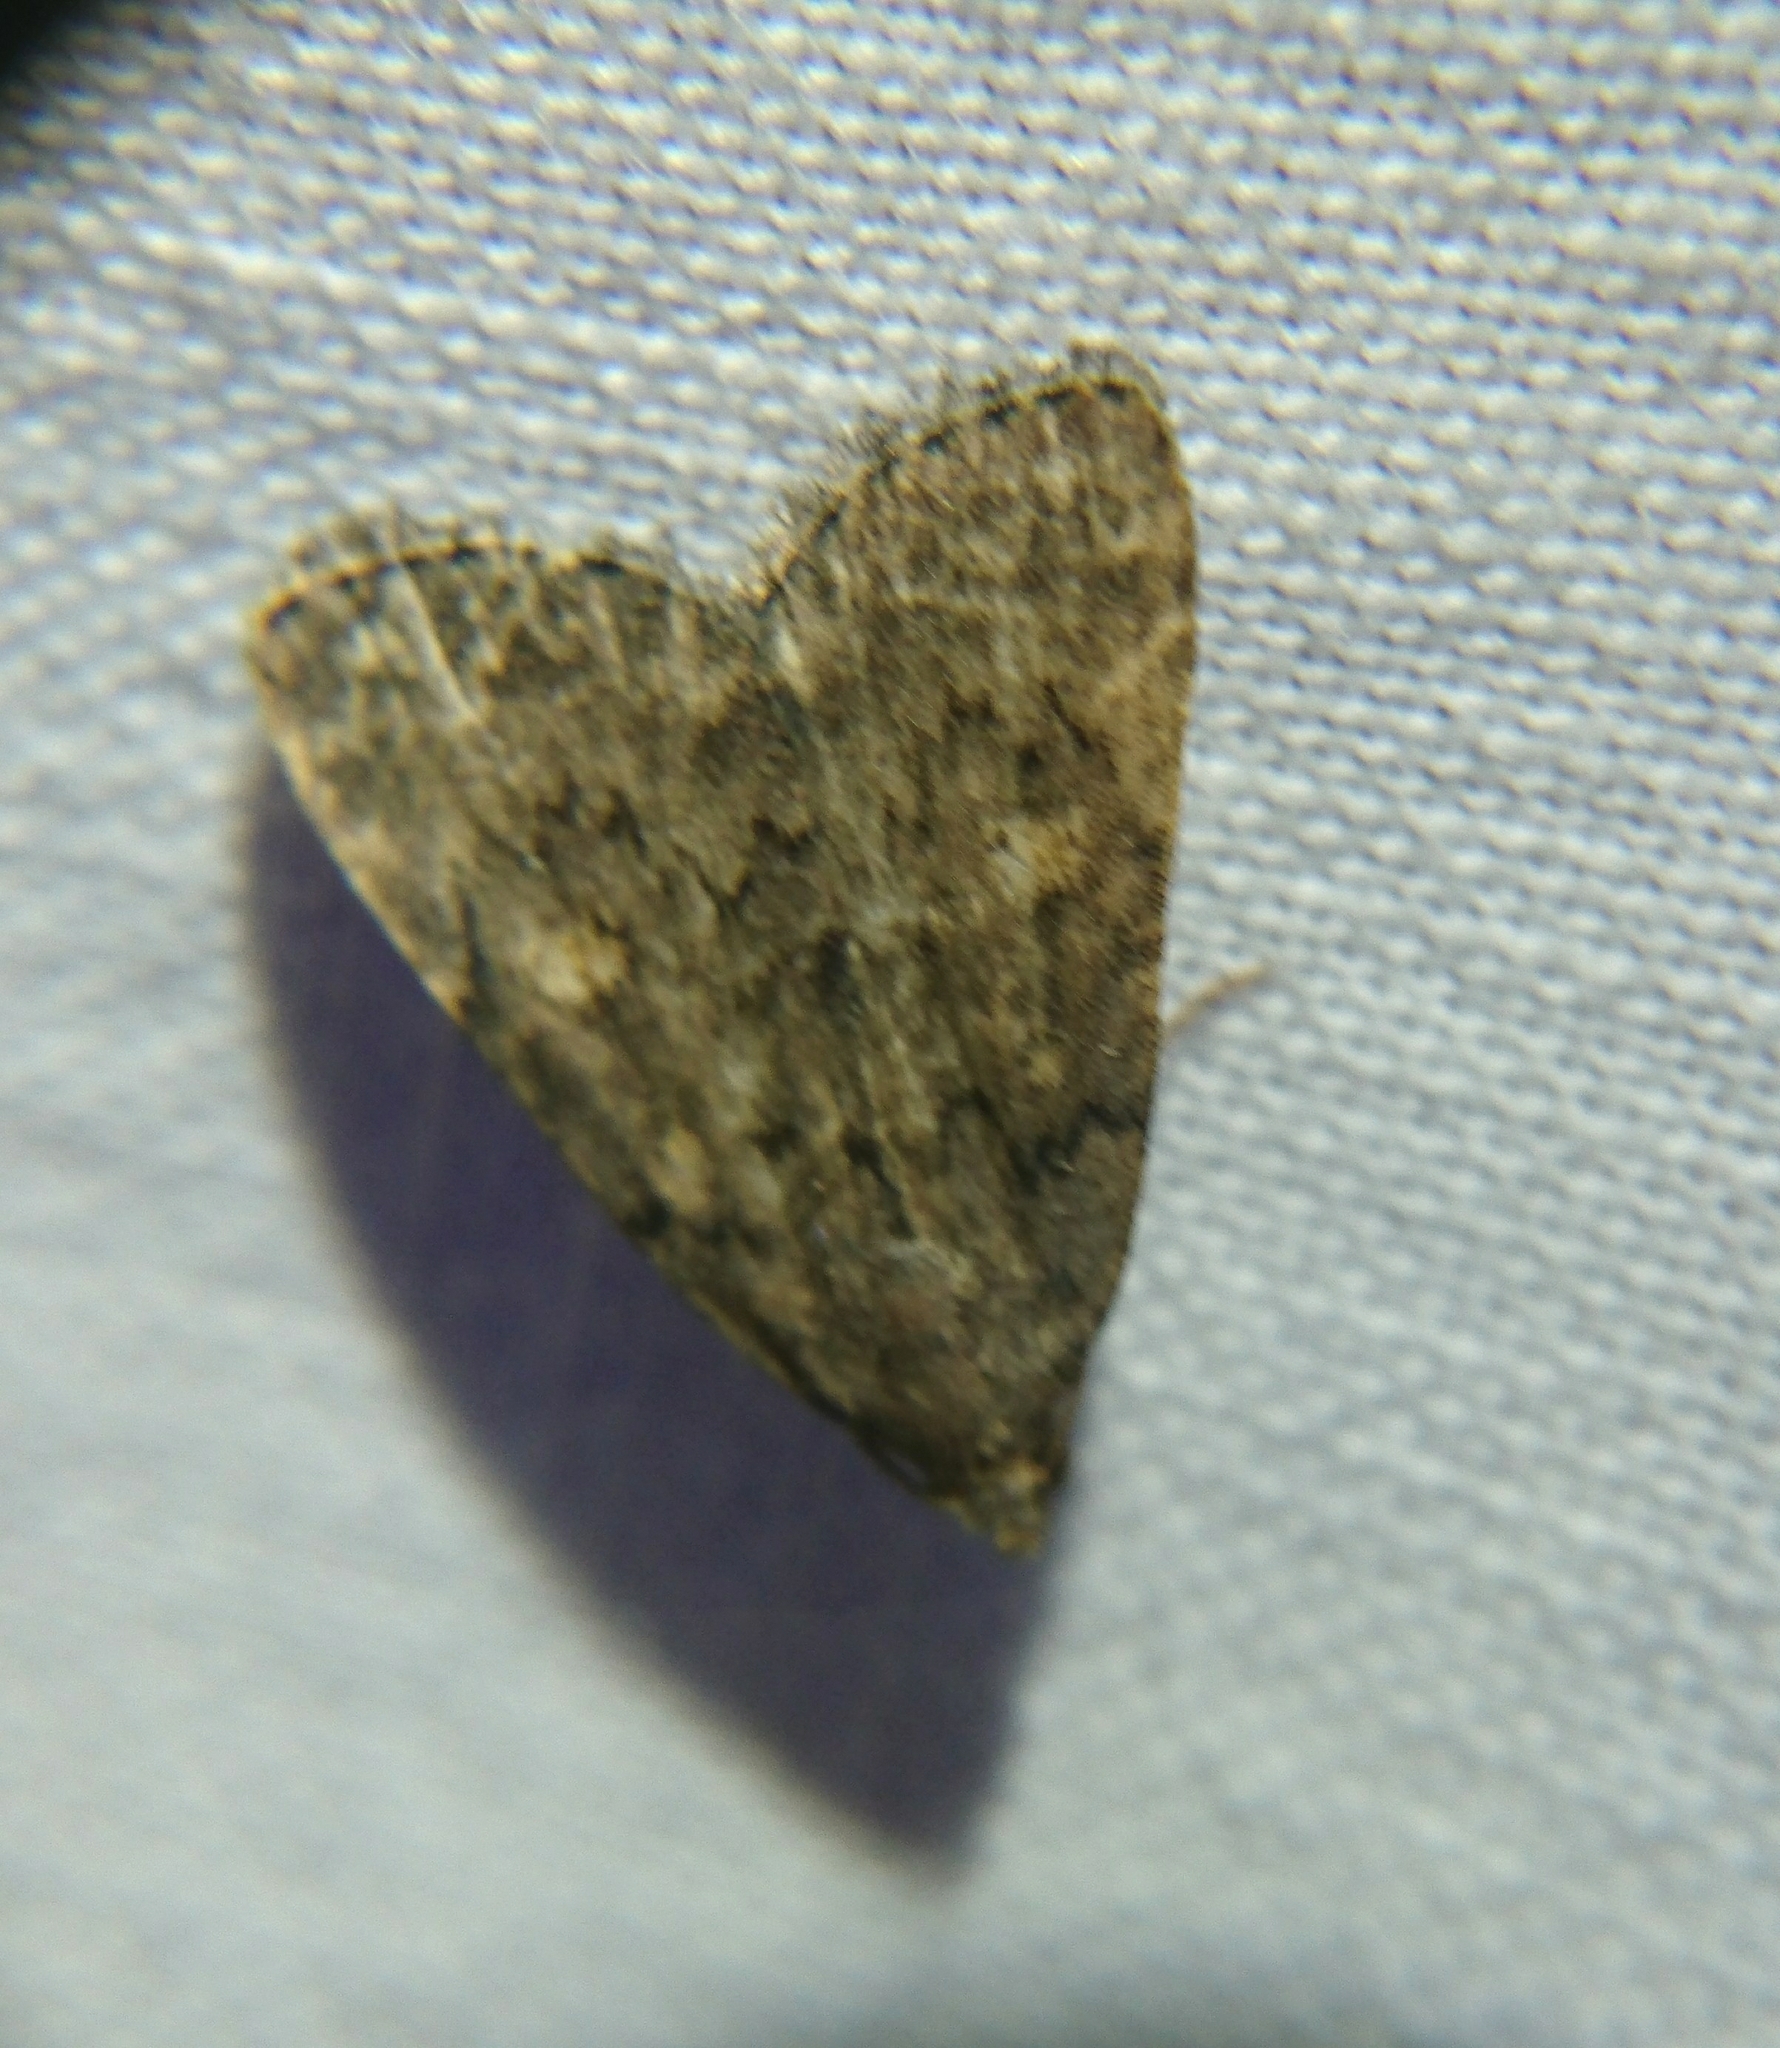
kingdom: Animalia
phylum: Arthropoda
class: Insecta
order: Lepidoptera
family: Erebidae
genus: Idia
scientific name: Idia aemula
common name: Common idia moth
